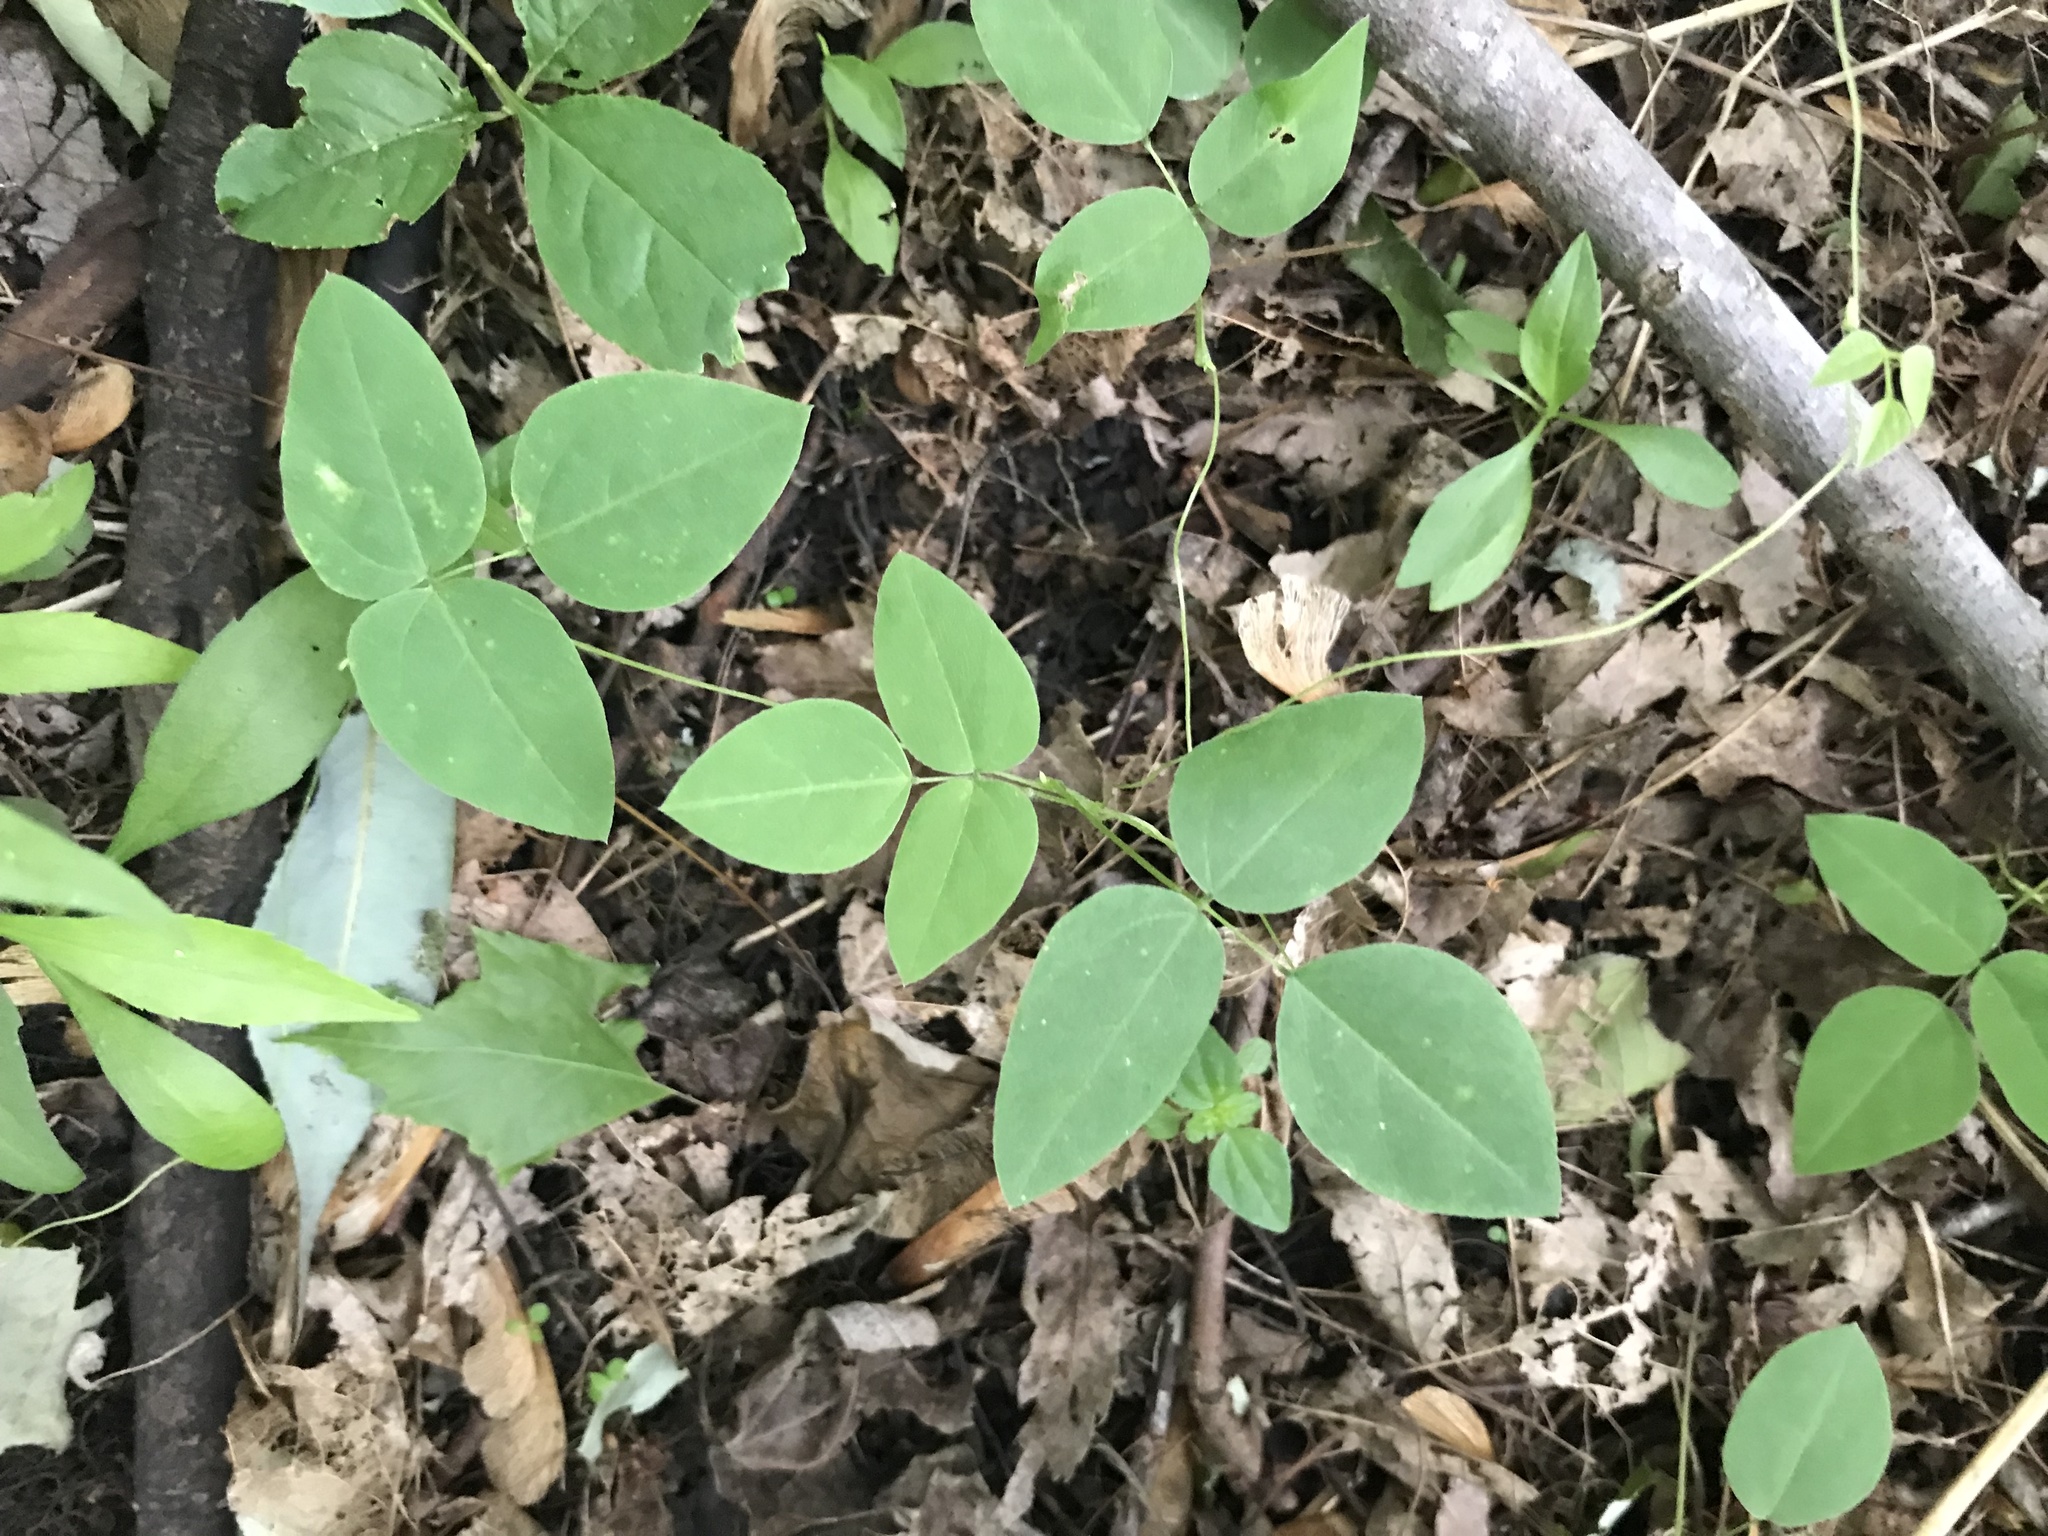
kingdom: Plantae
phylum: Tracheophyta
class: Magnoliopsida
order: Fabales
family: Fabaceae
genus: Amphicarpaea
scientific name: Amphicarpaea bracteata
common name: American hog peanut
